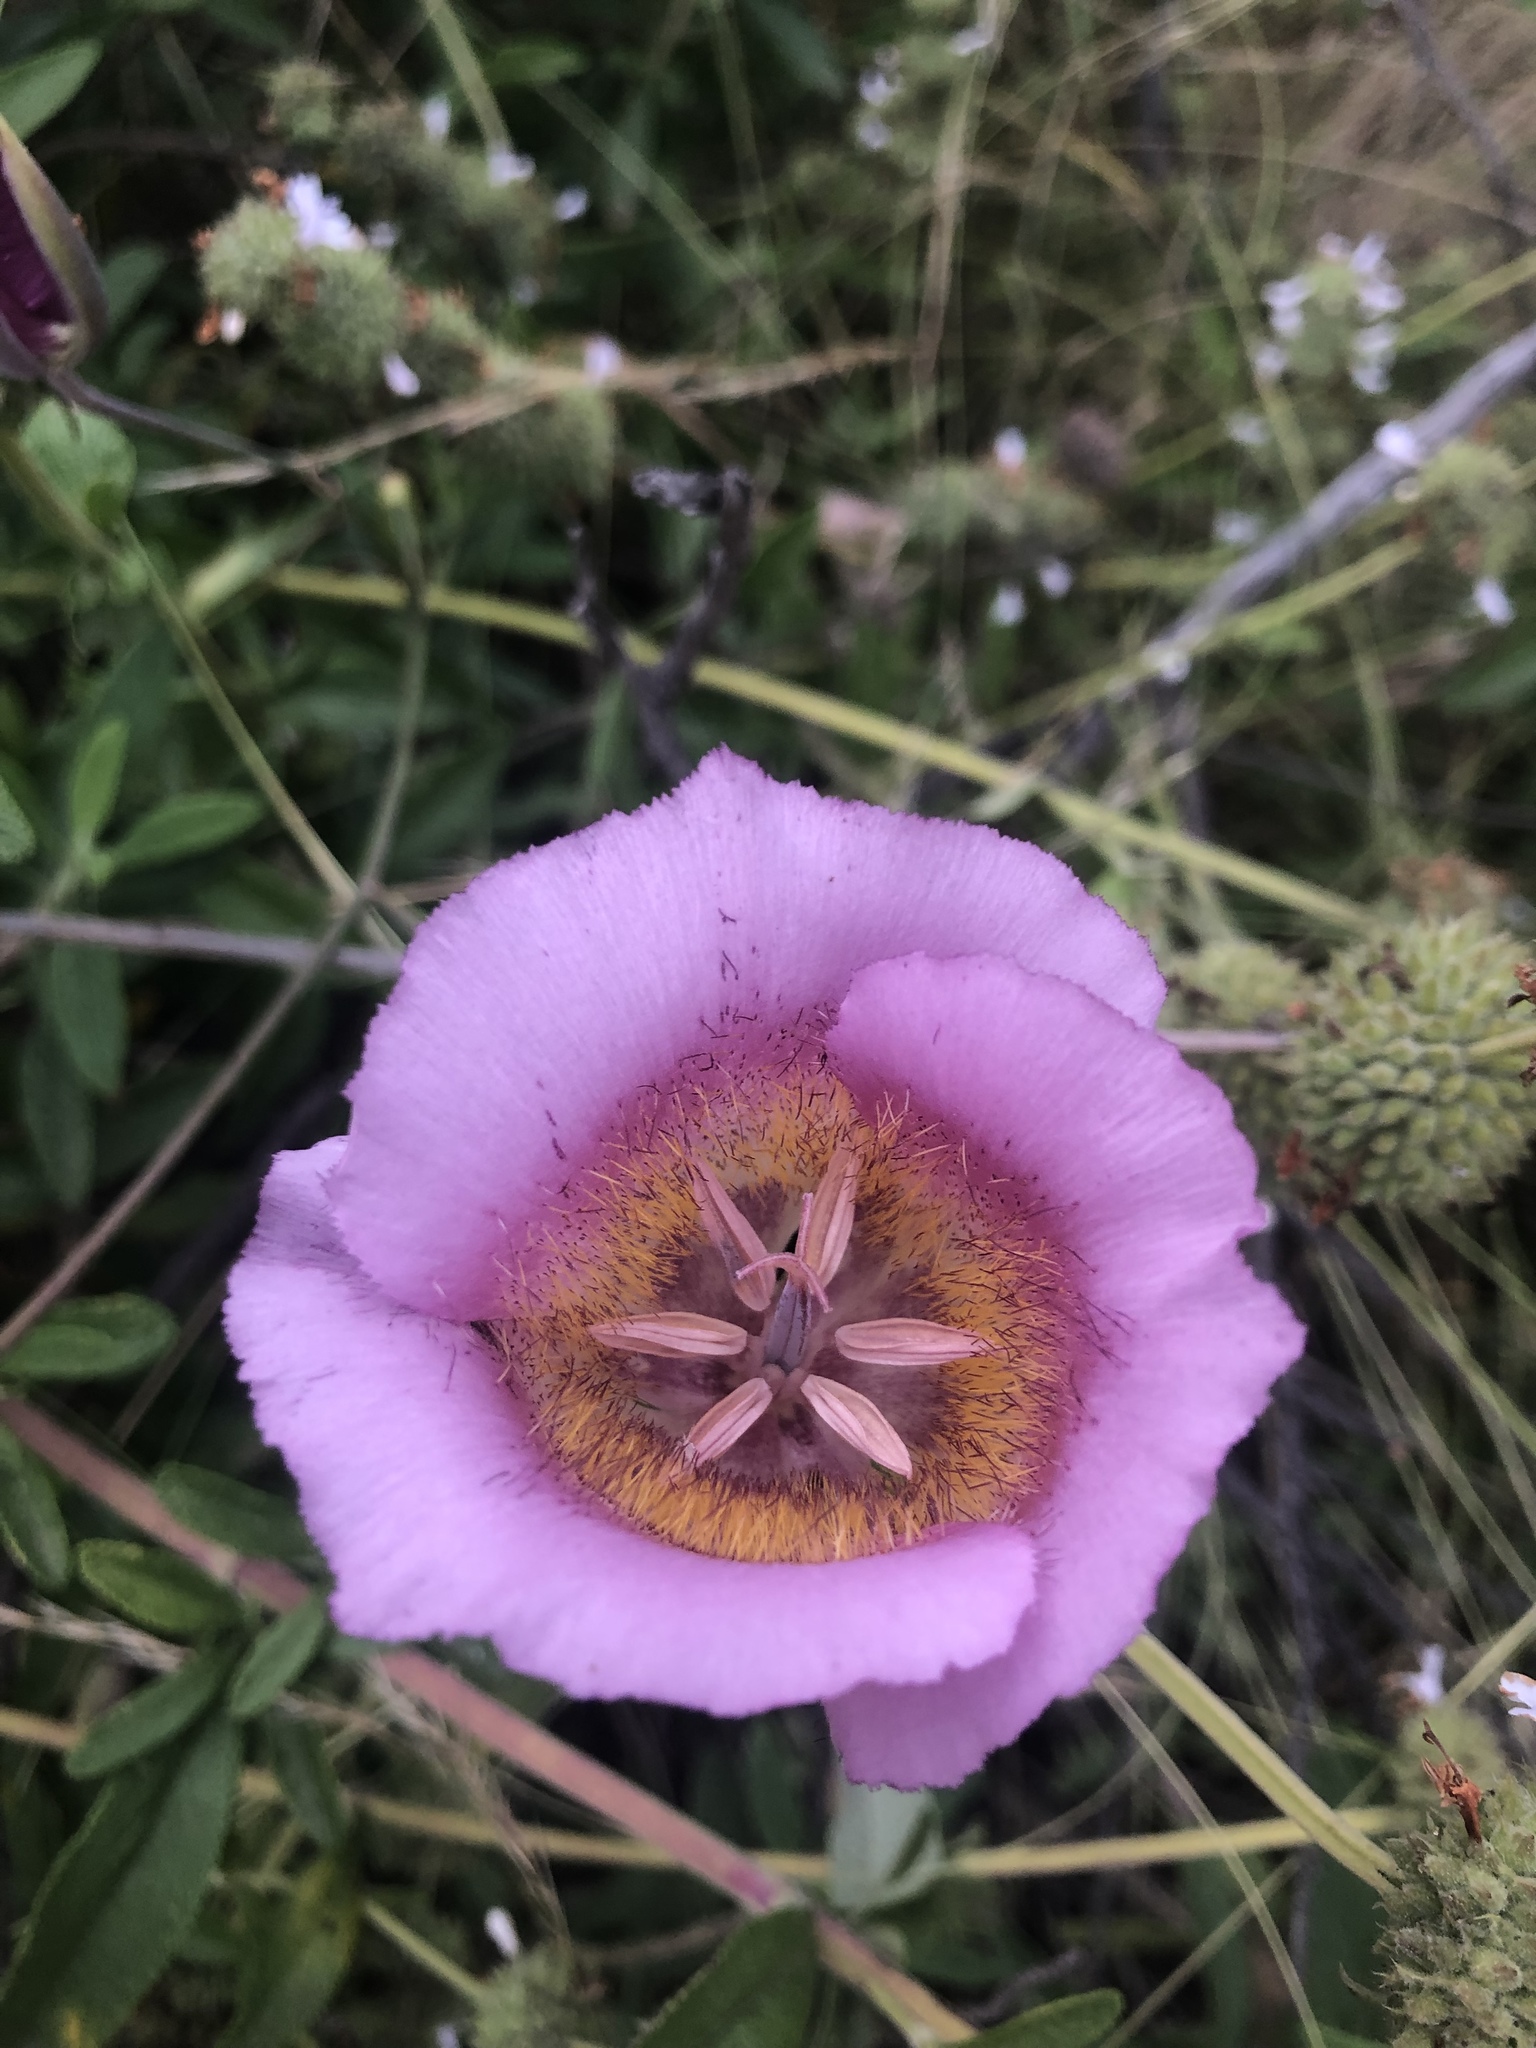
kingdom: Plantae
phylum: Tracheophyta
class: Liliopsida
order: Liliales
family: Liliaceae
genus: Calochortus
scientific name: Calochortus plummerae
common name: Plummer's mariposa-lily
